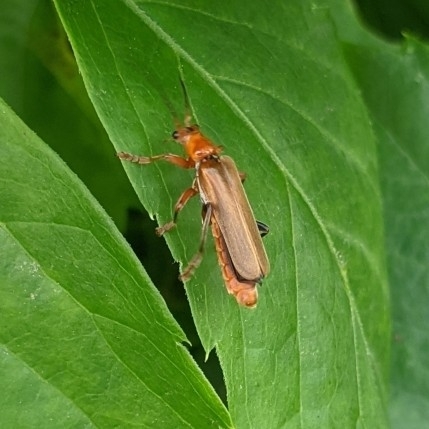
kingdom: Animalia
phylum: Arthropoda
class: Insecta
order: Coleoptera
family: Cantharidae
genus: Cantharis
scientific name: Cantharis livida
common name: Livid soldier beetle
